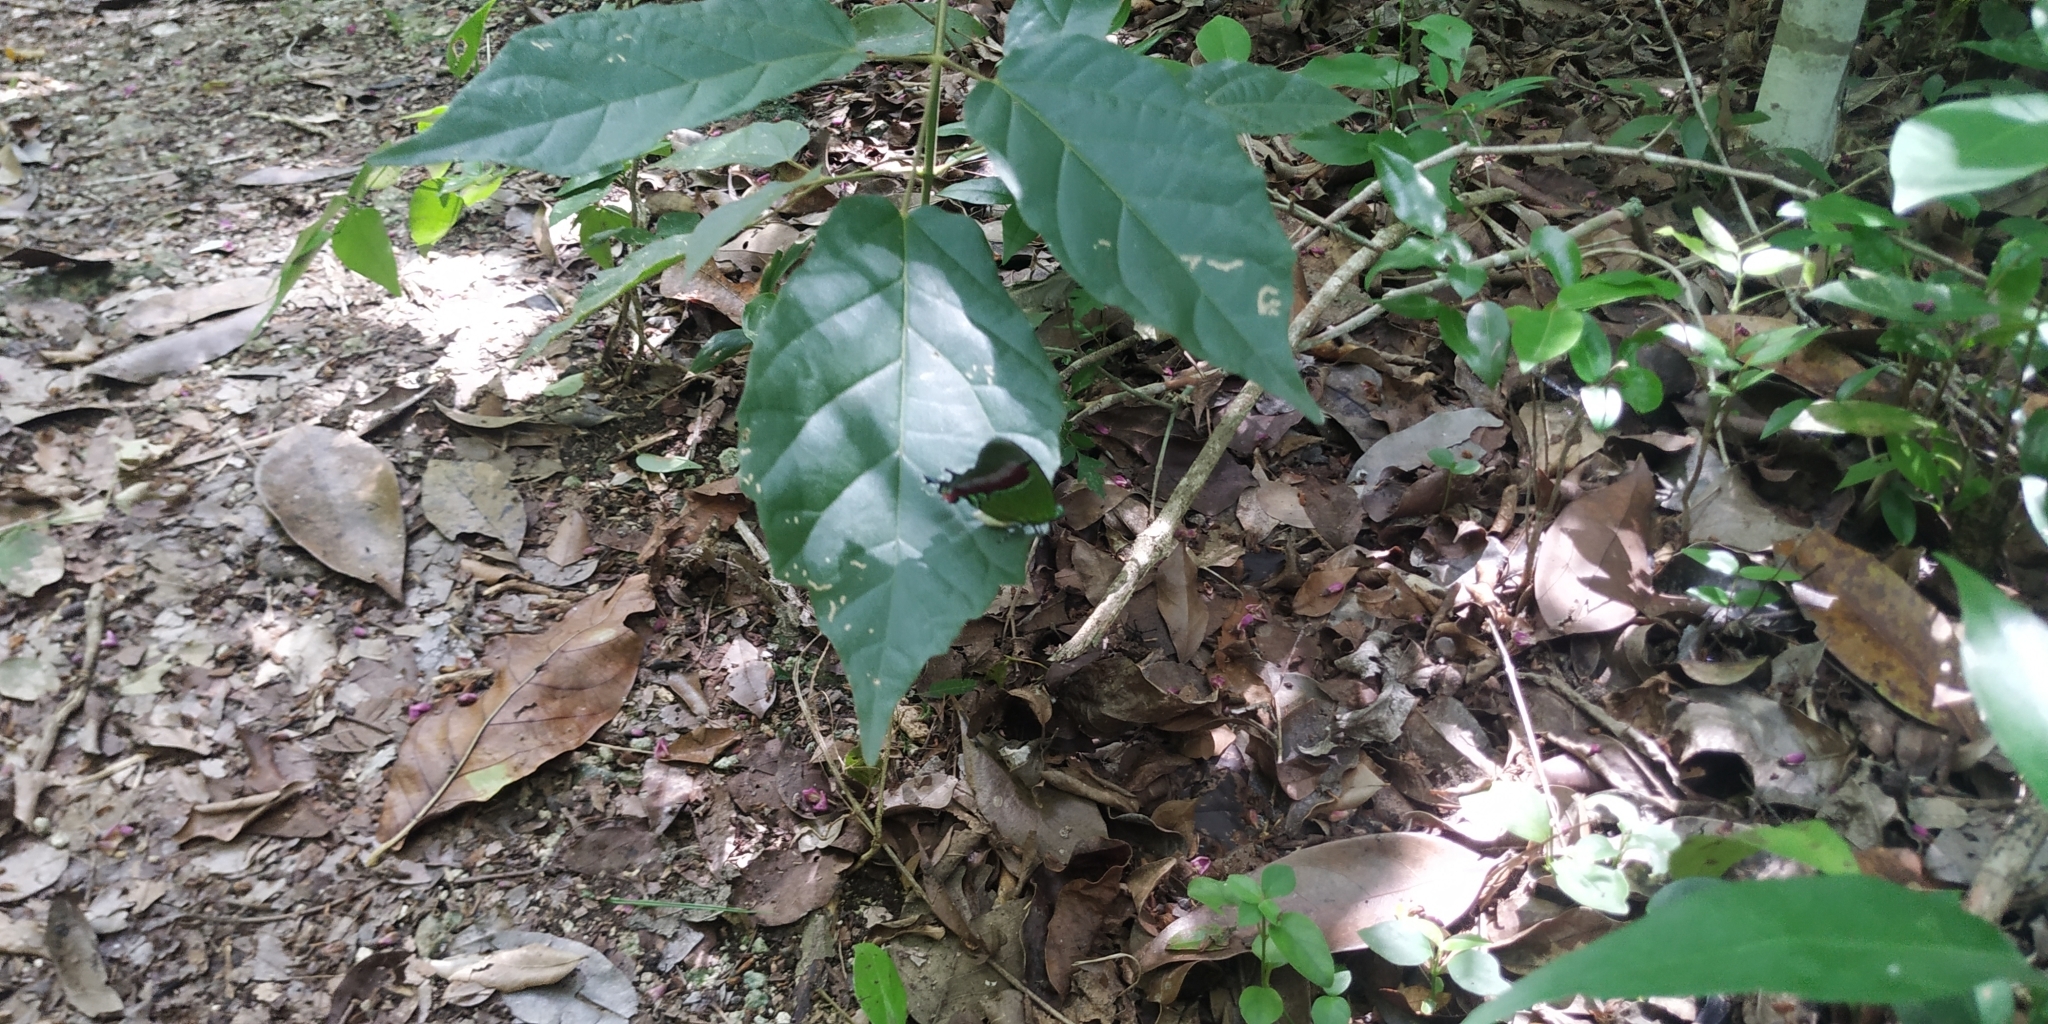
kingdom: Animalia
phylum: Arthropoda
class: Insecta
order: Lepidoptera
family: Lycaenidae
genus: Evenus
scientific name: Evenus regalis
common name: Regal hairstreak
